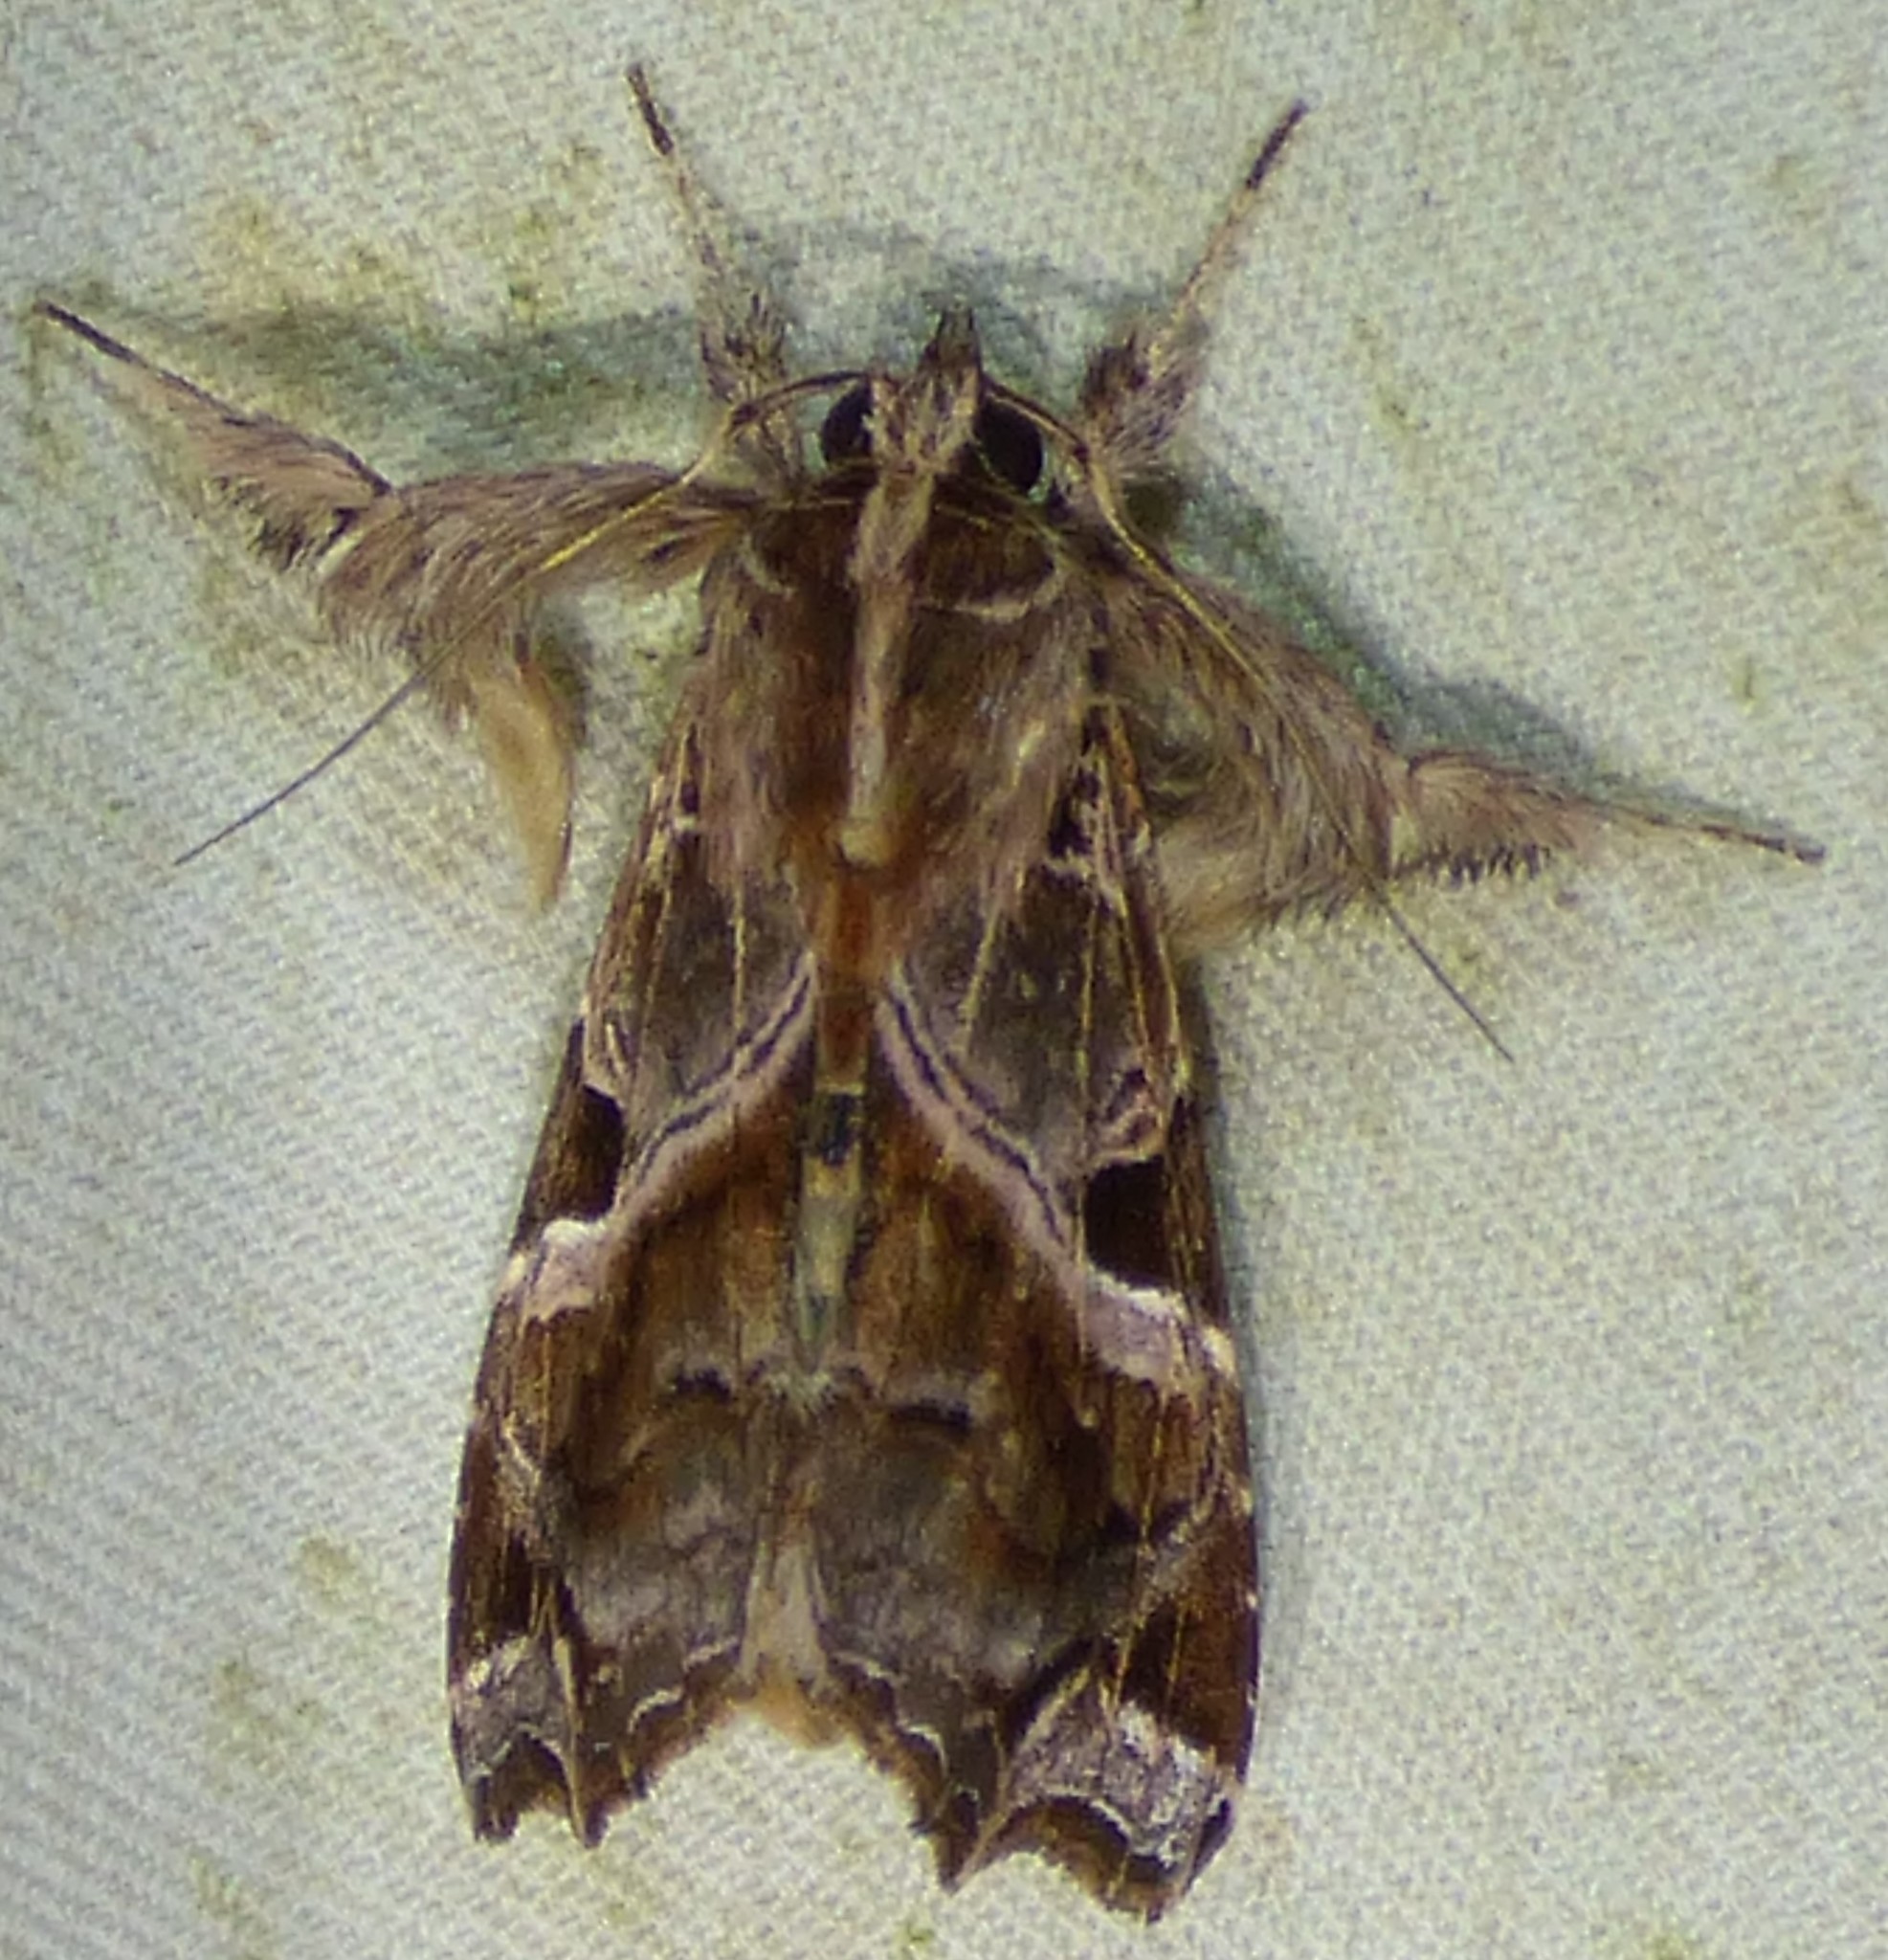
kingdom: Animalia
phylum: Arthropoda
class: Insecta
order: Lepidoptera
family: Noctuidae
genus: Callopistria
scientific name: Callopistria floridensis
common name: Florida fern moth
